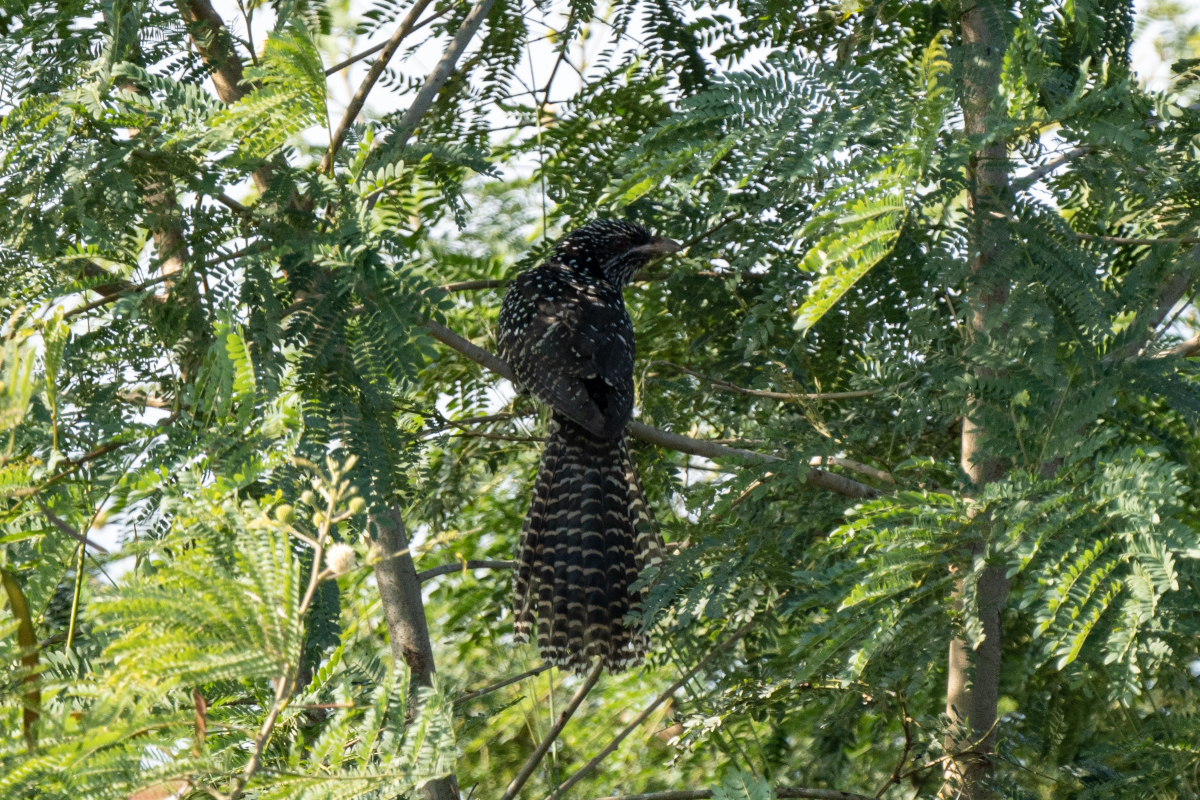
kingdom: Animalia
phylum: Chordata
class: Aves
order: Cuculiformes
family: Cuculidae
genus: Eudynamys
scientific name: Eudynamys scolopaceus
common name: Asian koel
